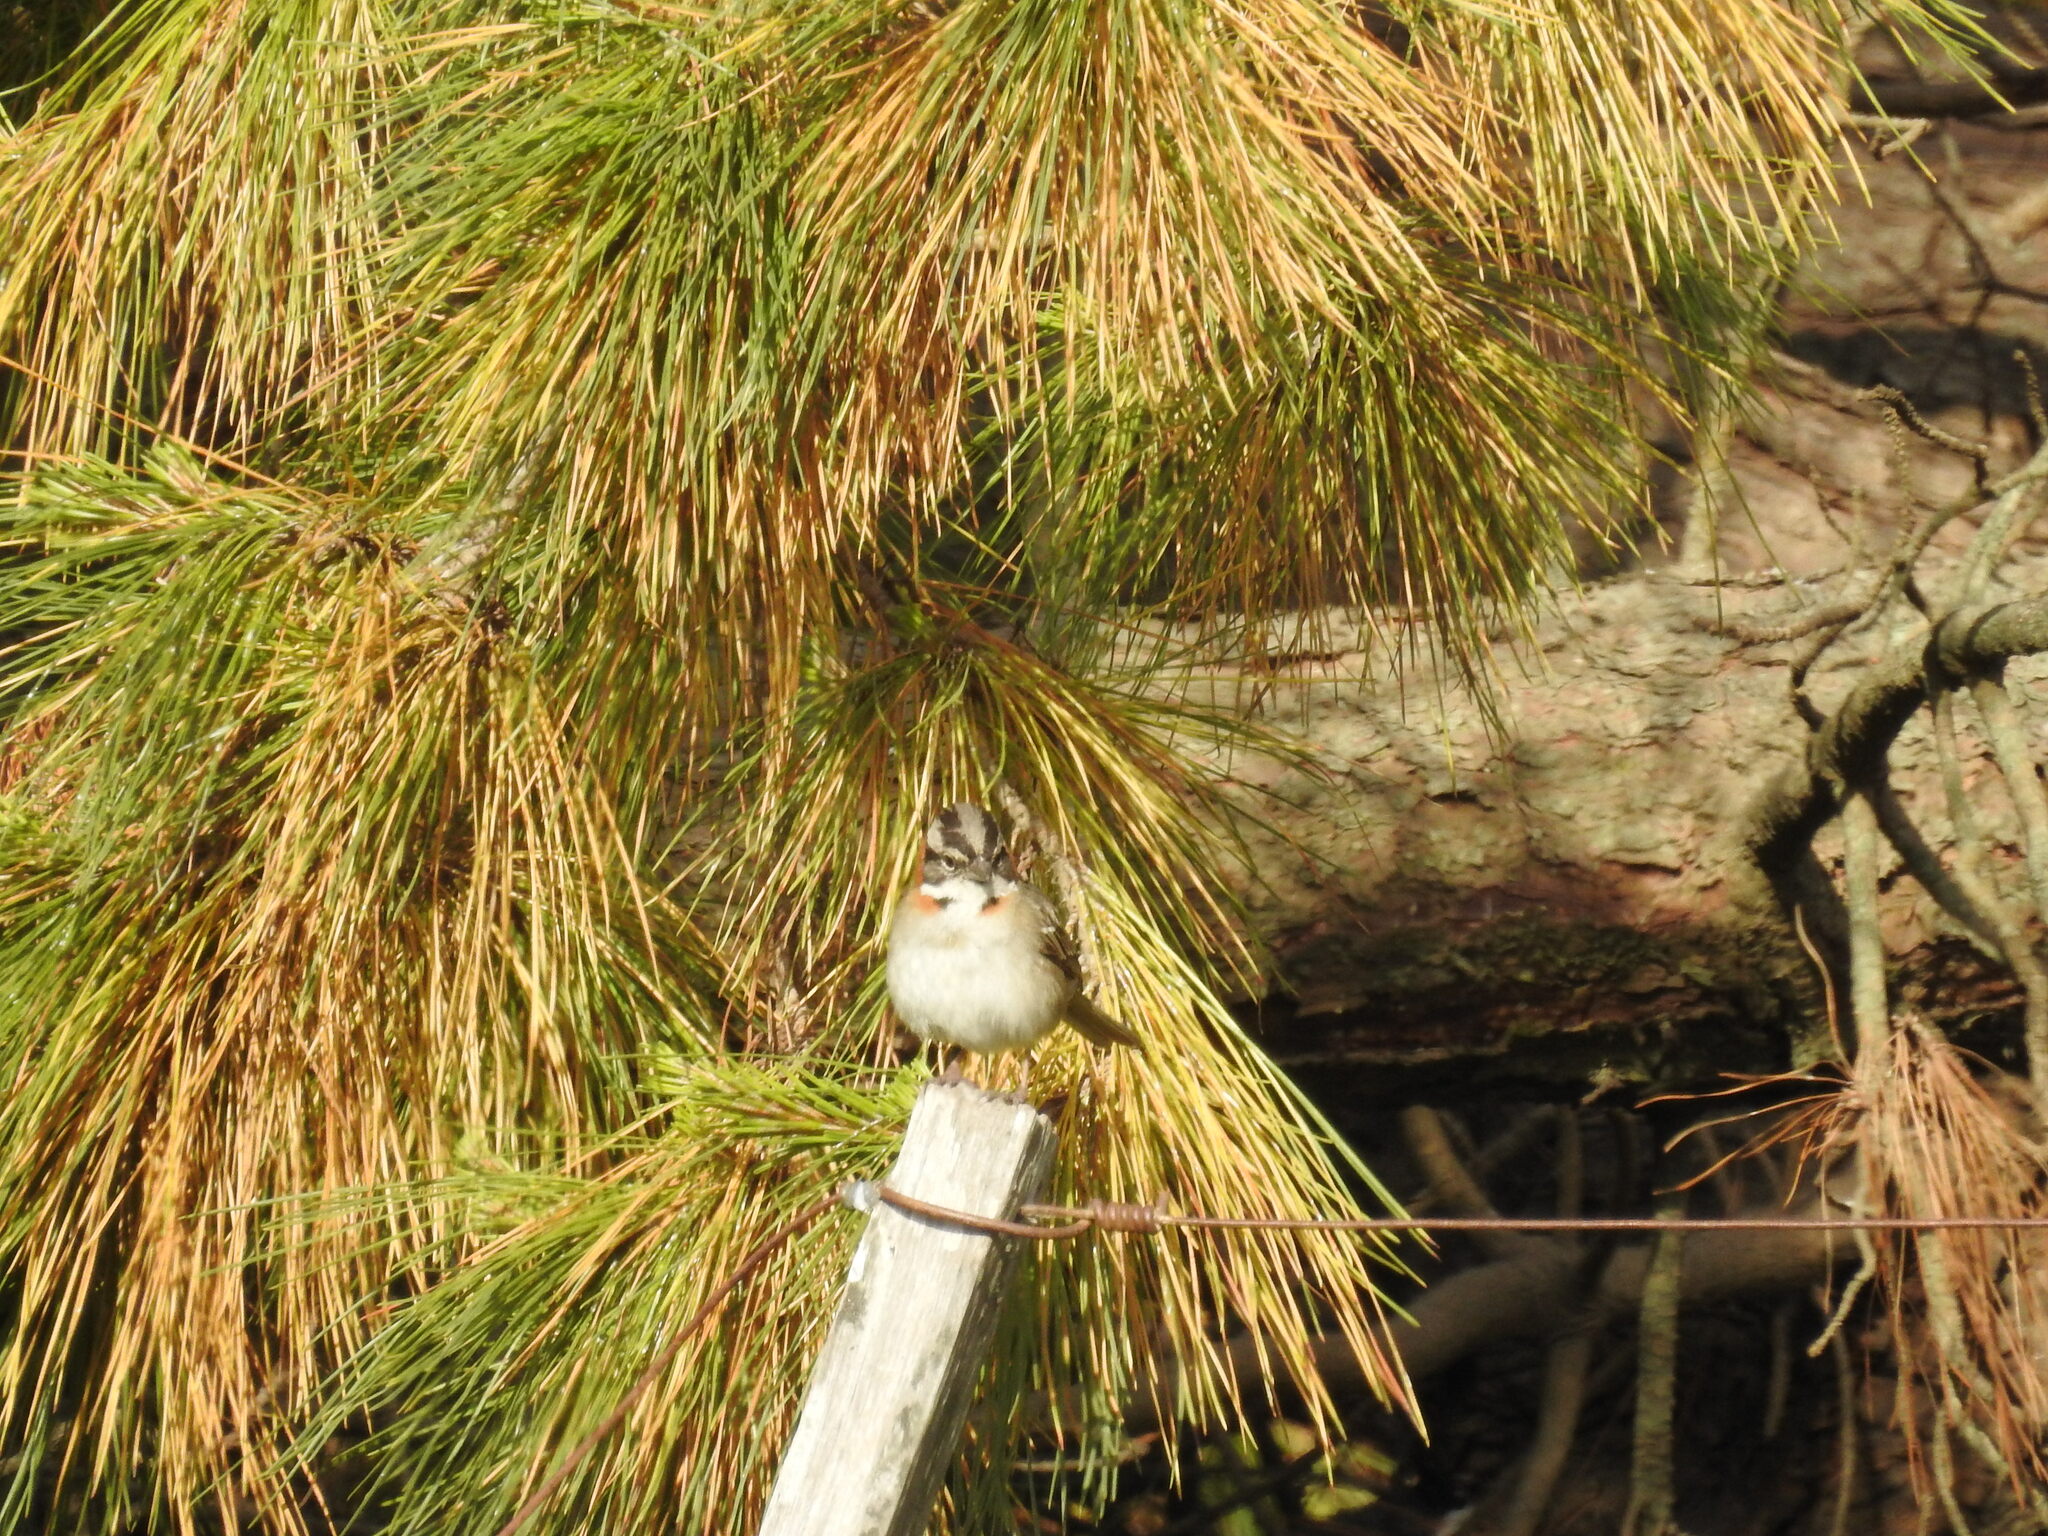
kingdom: Animalia
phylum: Chordata
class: Aves
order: Passeriformes
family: Passerellidae
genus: Zonotrichia
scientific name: Zonotrichia capensis
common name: Rufous-collared sparrow
